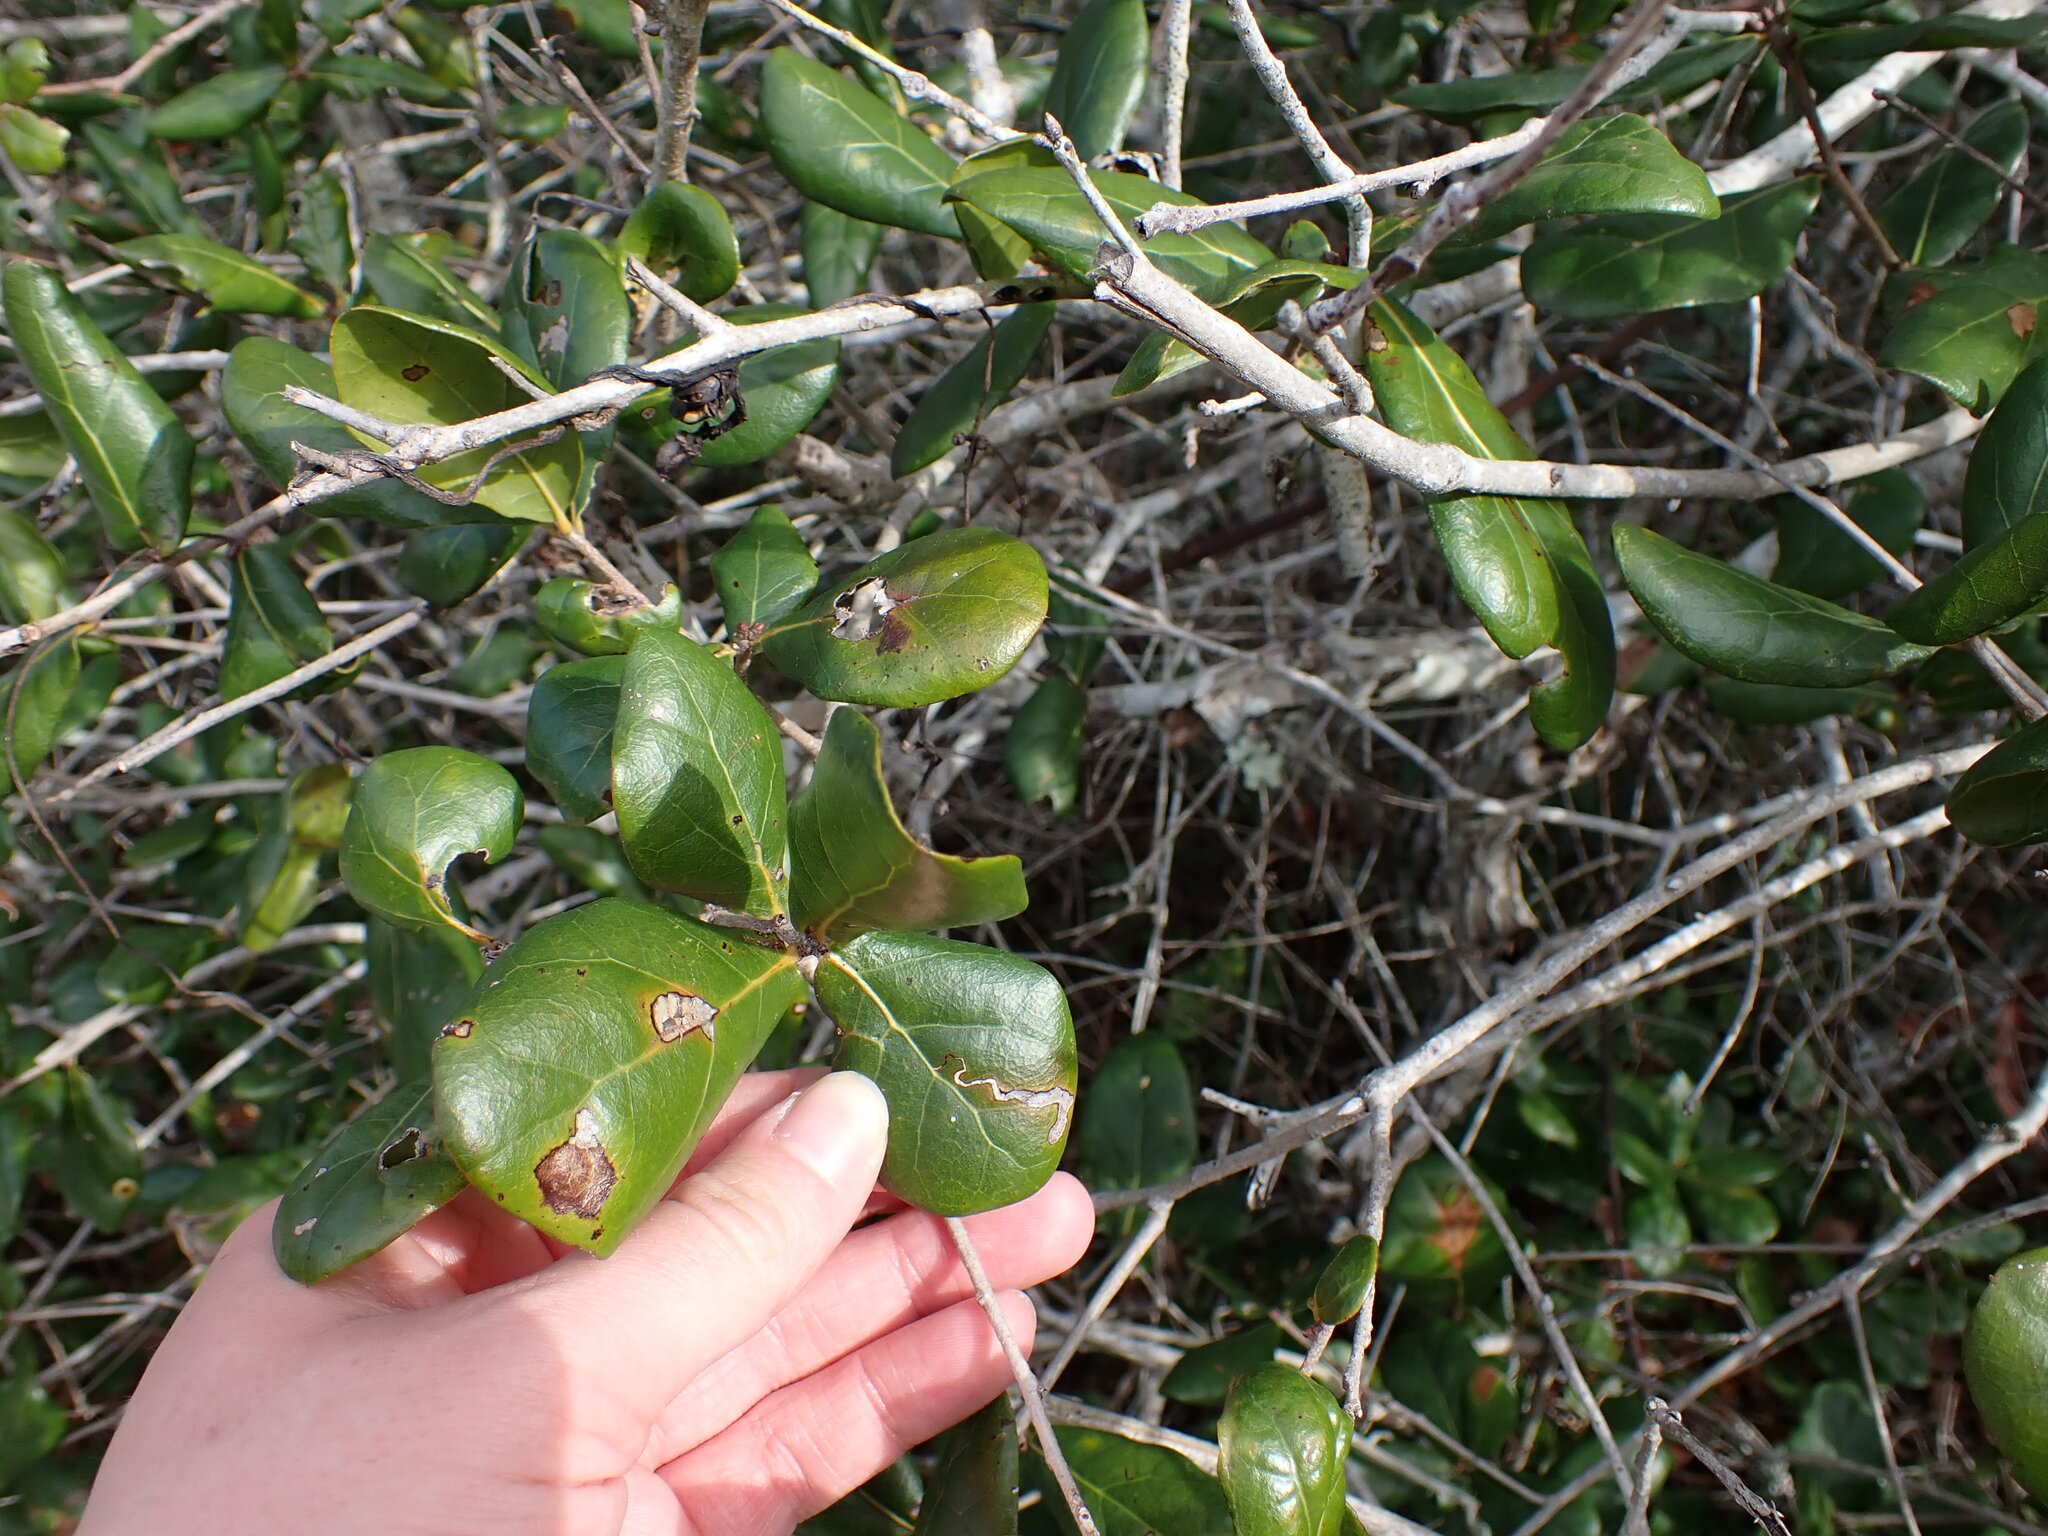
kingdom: Plantae
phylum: Tracheophyta
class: Magnoliopsida
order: Fagales
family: Fagaceae
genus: Quercus
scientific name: Quercus myrtifolia
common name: Myrtle oak
